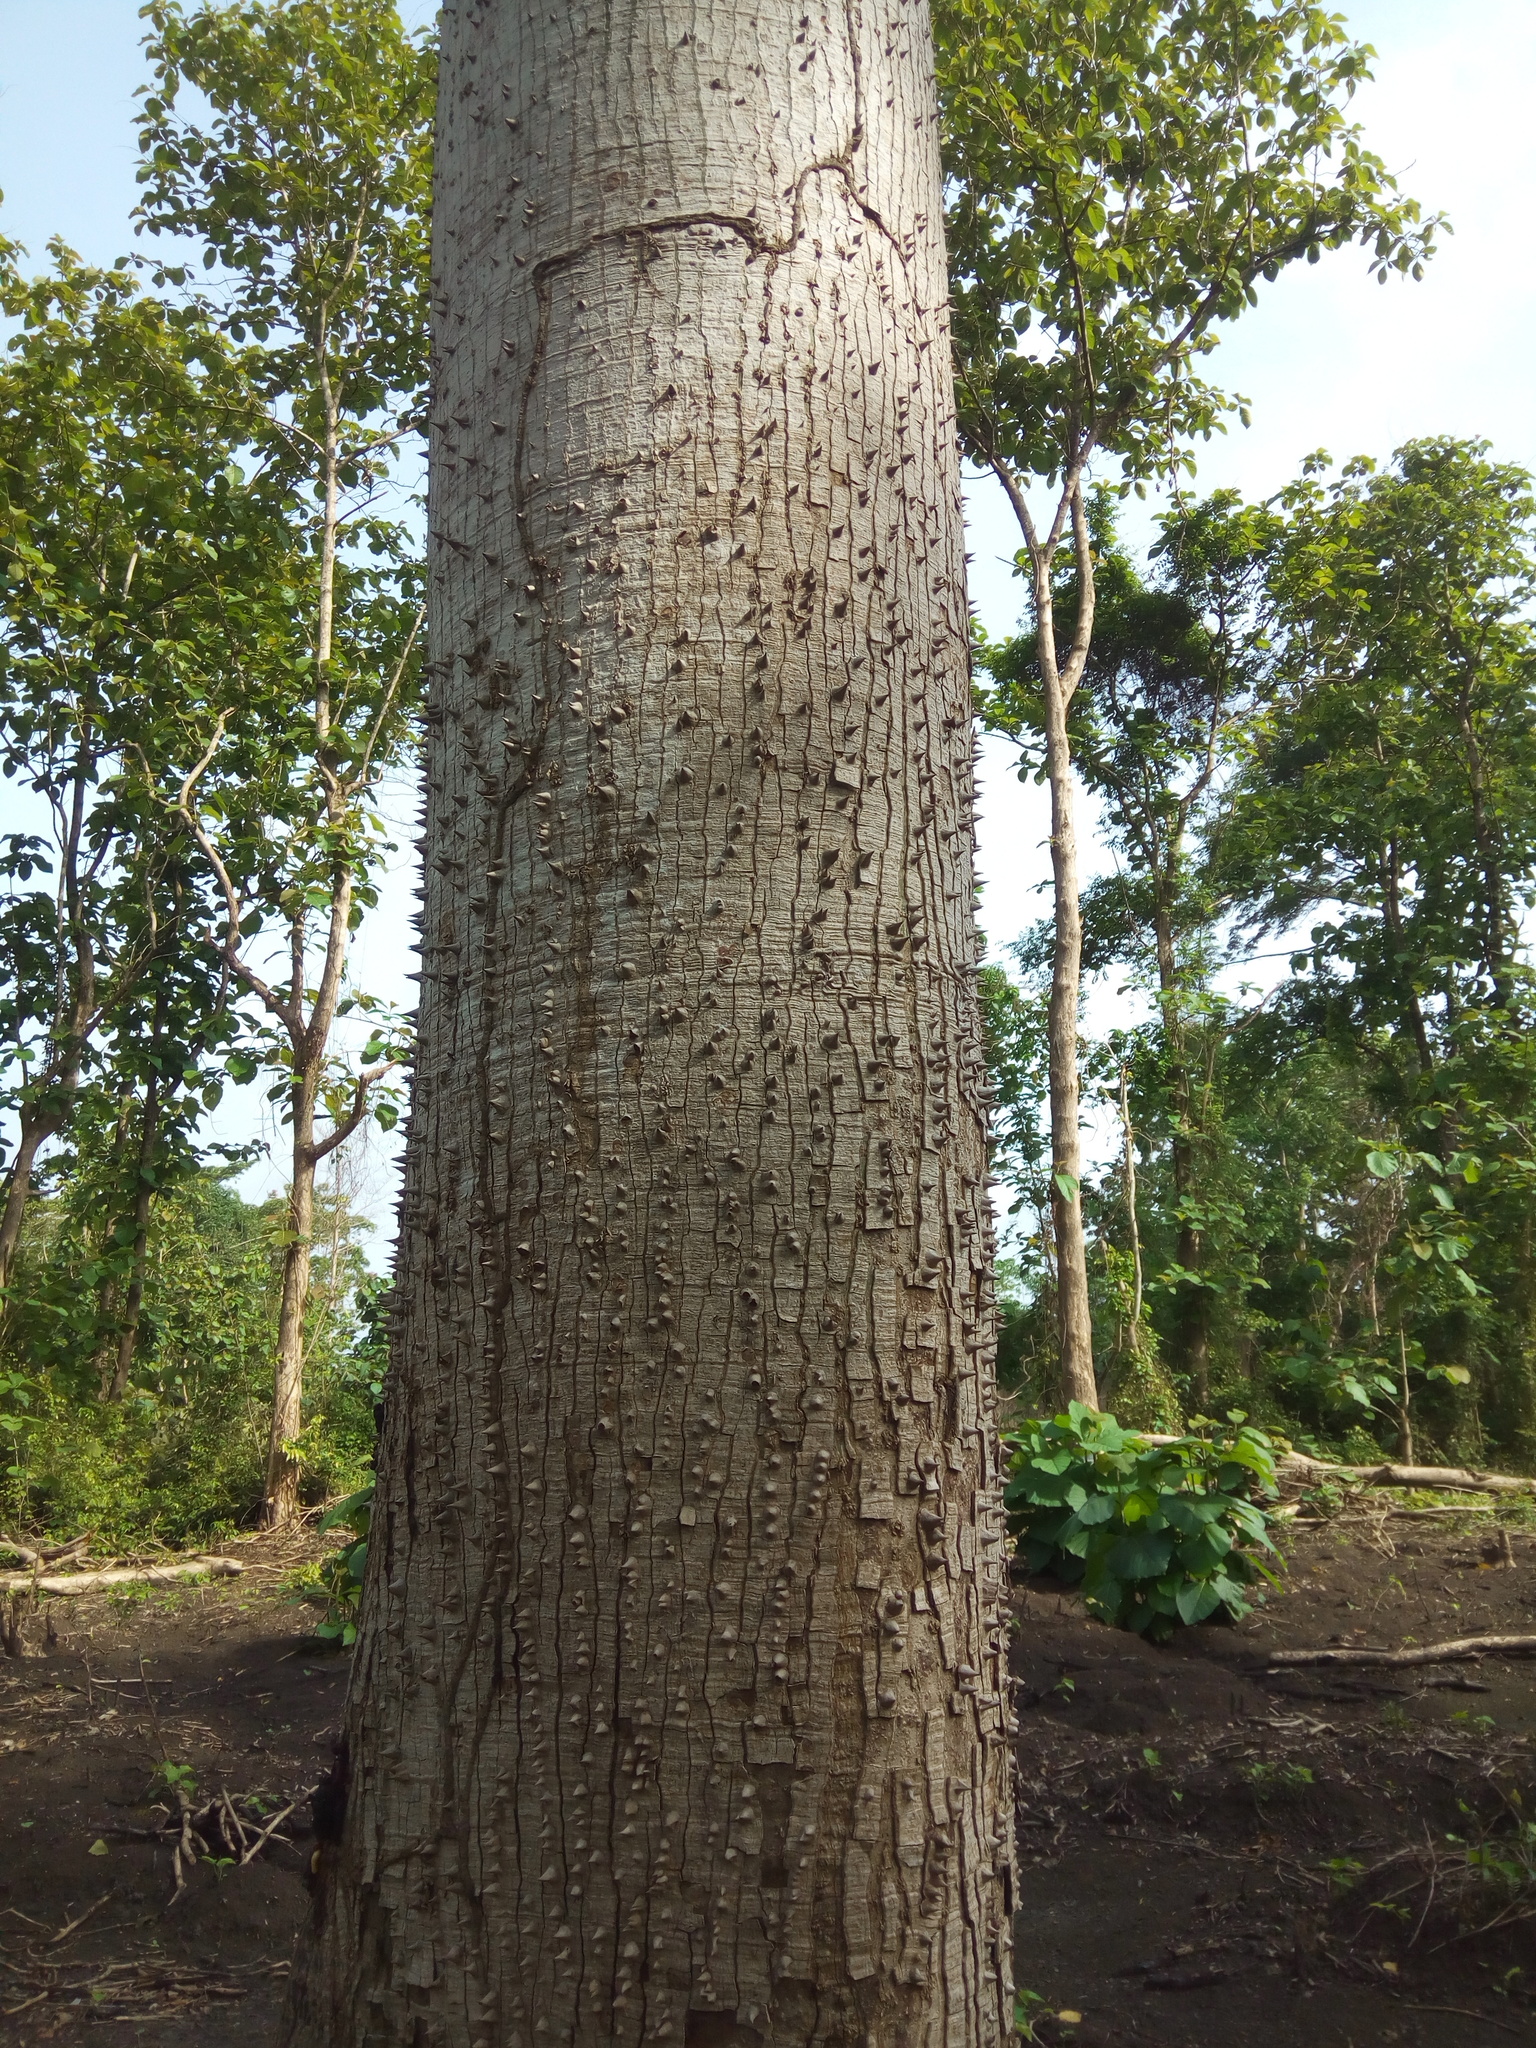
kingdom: Plantae
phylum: Tracheophyta
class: Magnoliopsida
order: Malvales
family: Malvaceae
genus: Ceiba
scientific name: Ceiba pentandra
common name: Kapok
